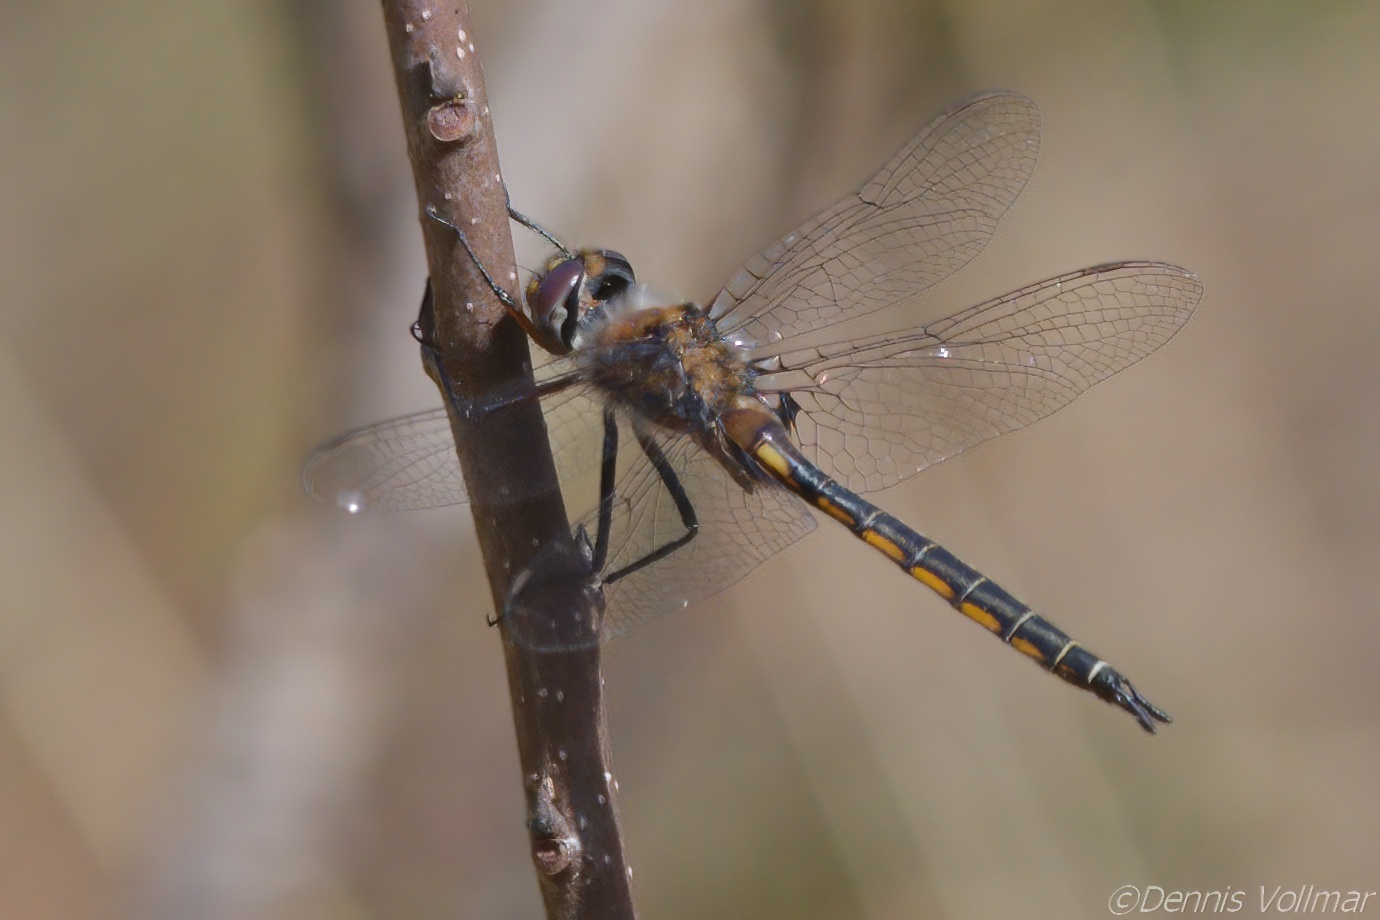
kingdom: Animalia
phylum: Arthropoda
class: Insecta
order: Odonata
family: Corduliidae
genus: Epitheca
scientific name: Epitheca costalis
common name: Slender baskettail
